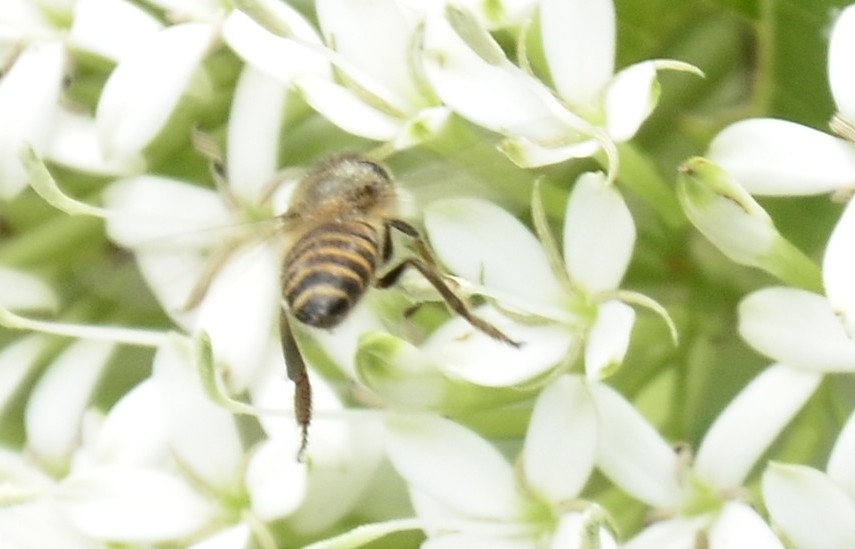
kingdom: Animalia
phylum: Arthropoda
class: Insecta
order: Hymenoptera
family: Apidae
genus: Apis
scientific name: Apis cerana
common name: Honey bee
